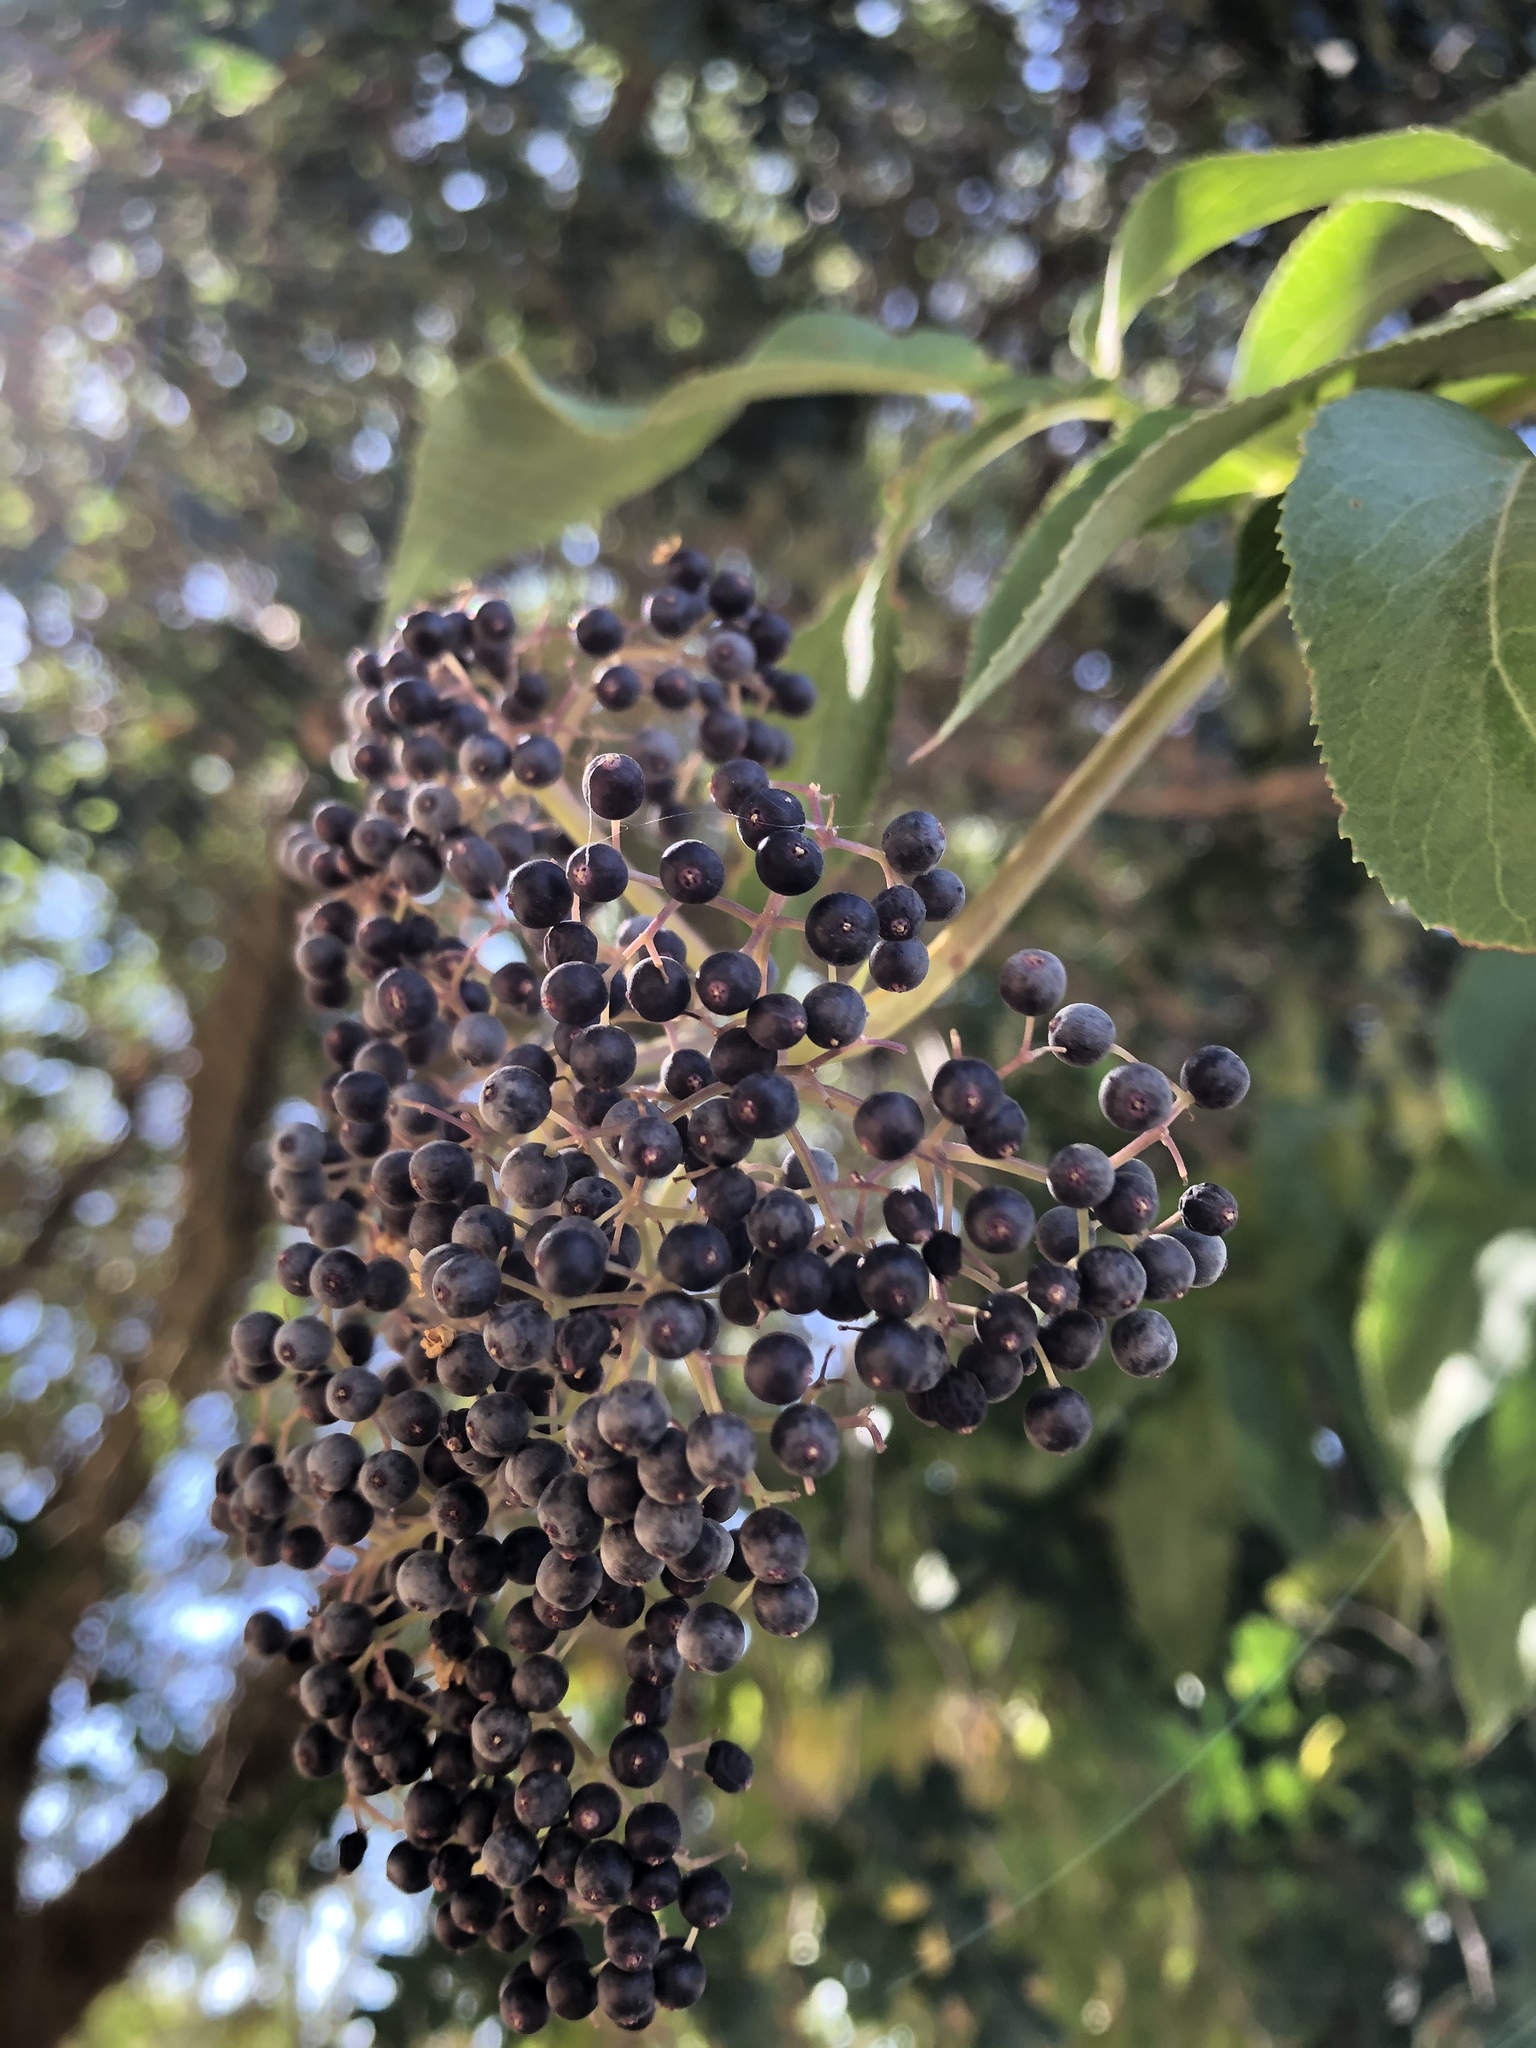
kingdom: Plantae
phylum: Tracheophyta
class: Magnoliopsida
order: Dipsacales
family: Viburnaceae
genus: Sambucus
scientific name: Sambucus cerulea
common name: Blue elder
